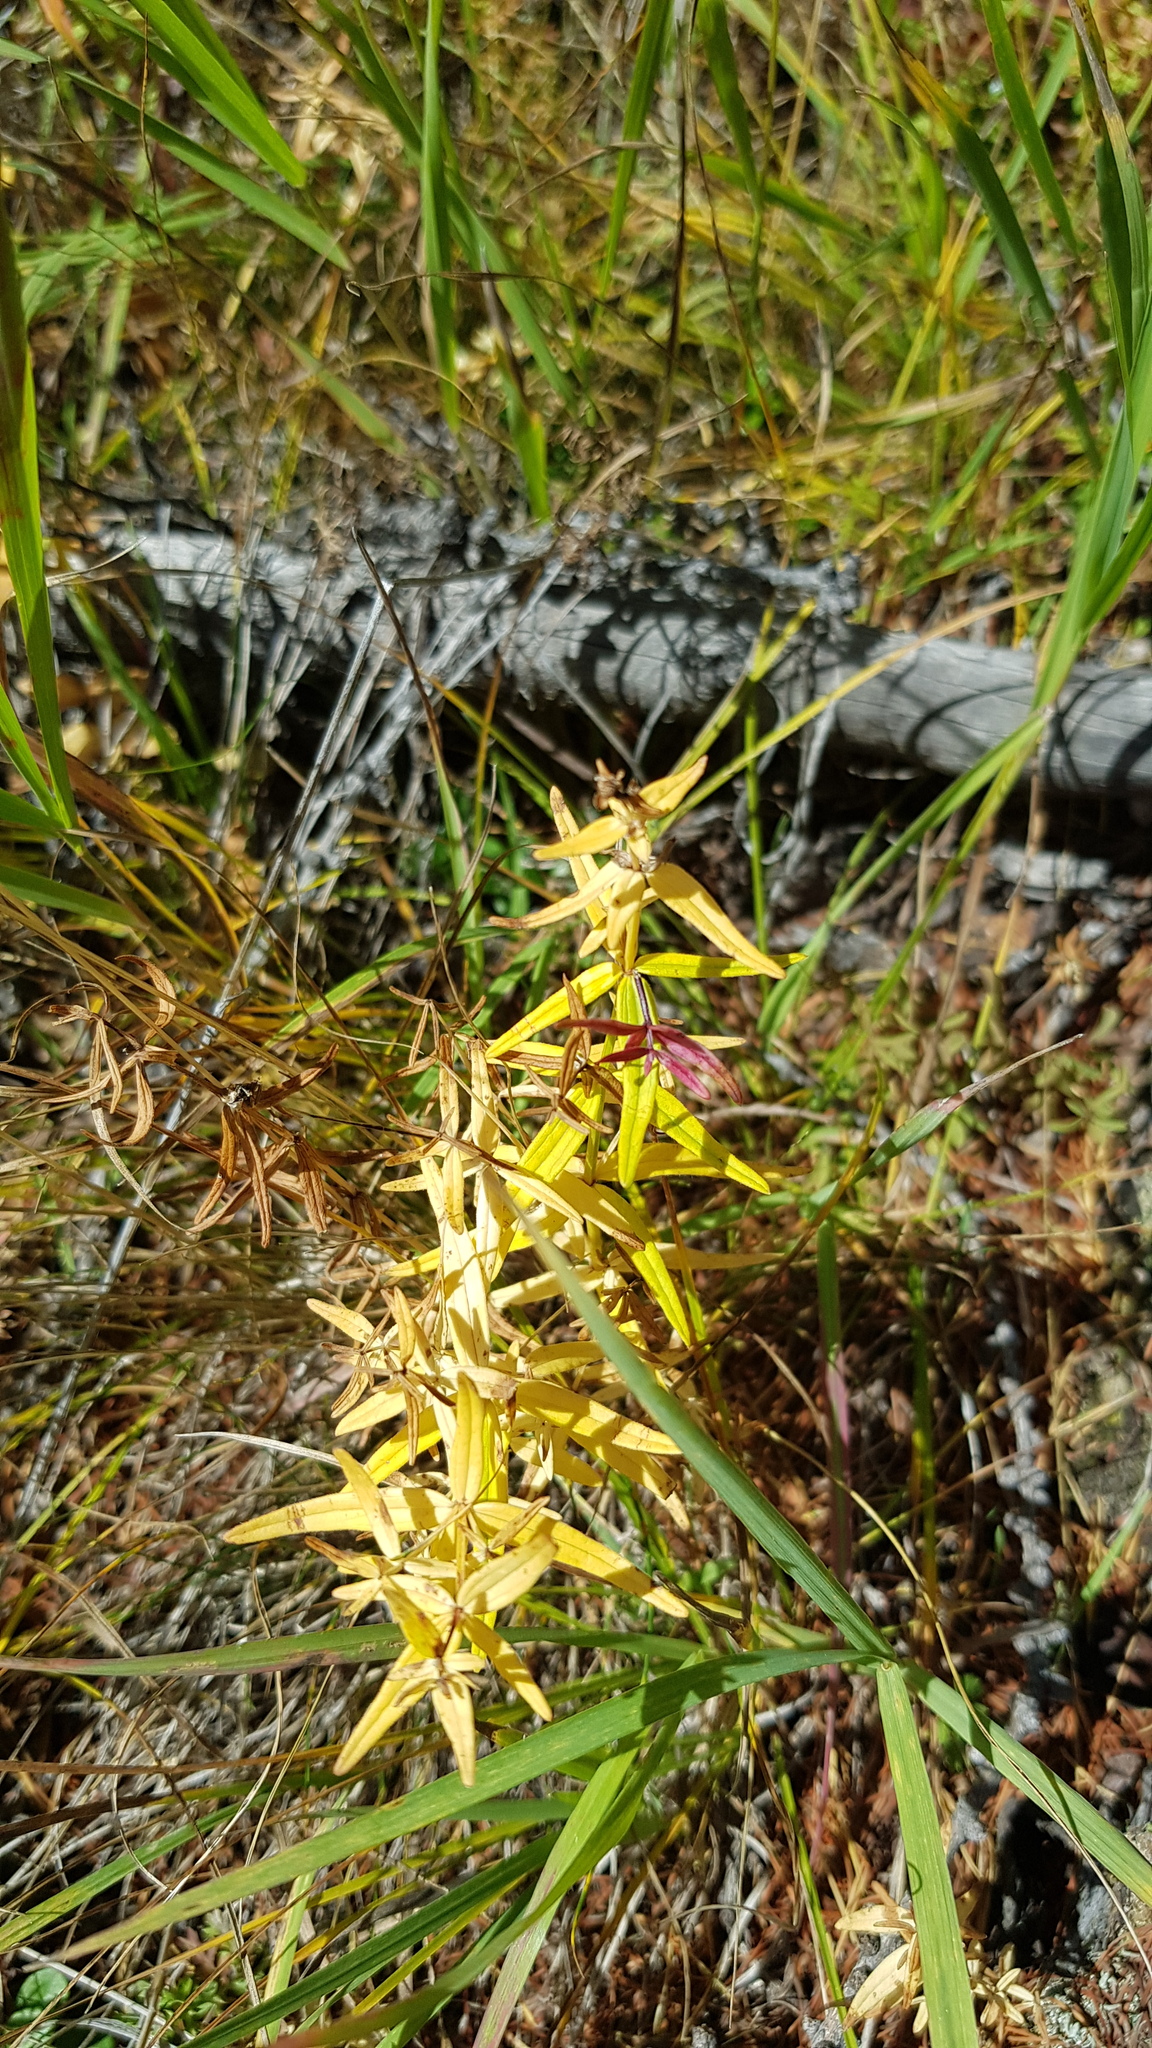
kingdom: Plantae
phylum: Tracheophyta
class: Magnoliopsida
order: Gentianales
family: Rubiaceae
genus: Galium
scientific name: Galium boreale
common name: Northern bedstraw
